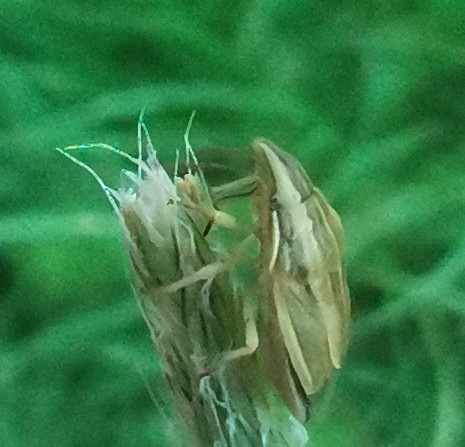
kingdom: Animalia
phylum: Arthropoda
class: Insecta
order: Hemiptera
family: Pentatomidae
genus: Aelia
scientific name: Aelia acuminata
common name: Bishop's mitre
